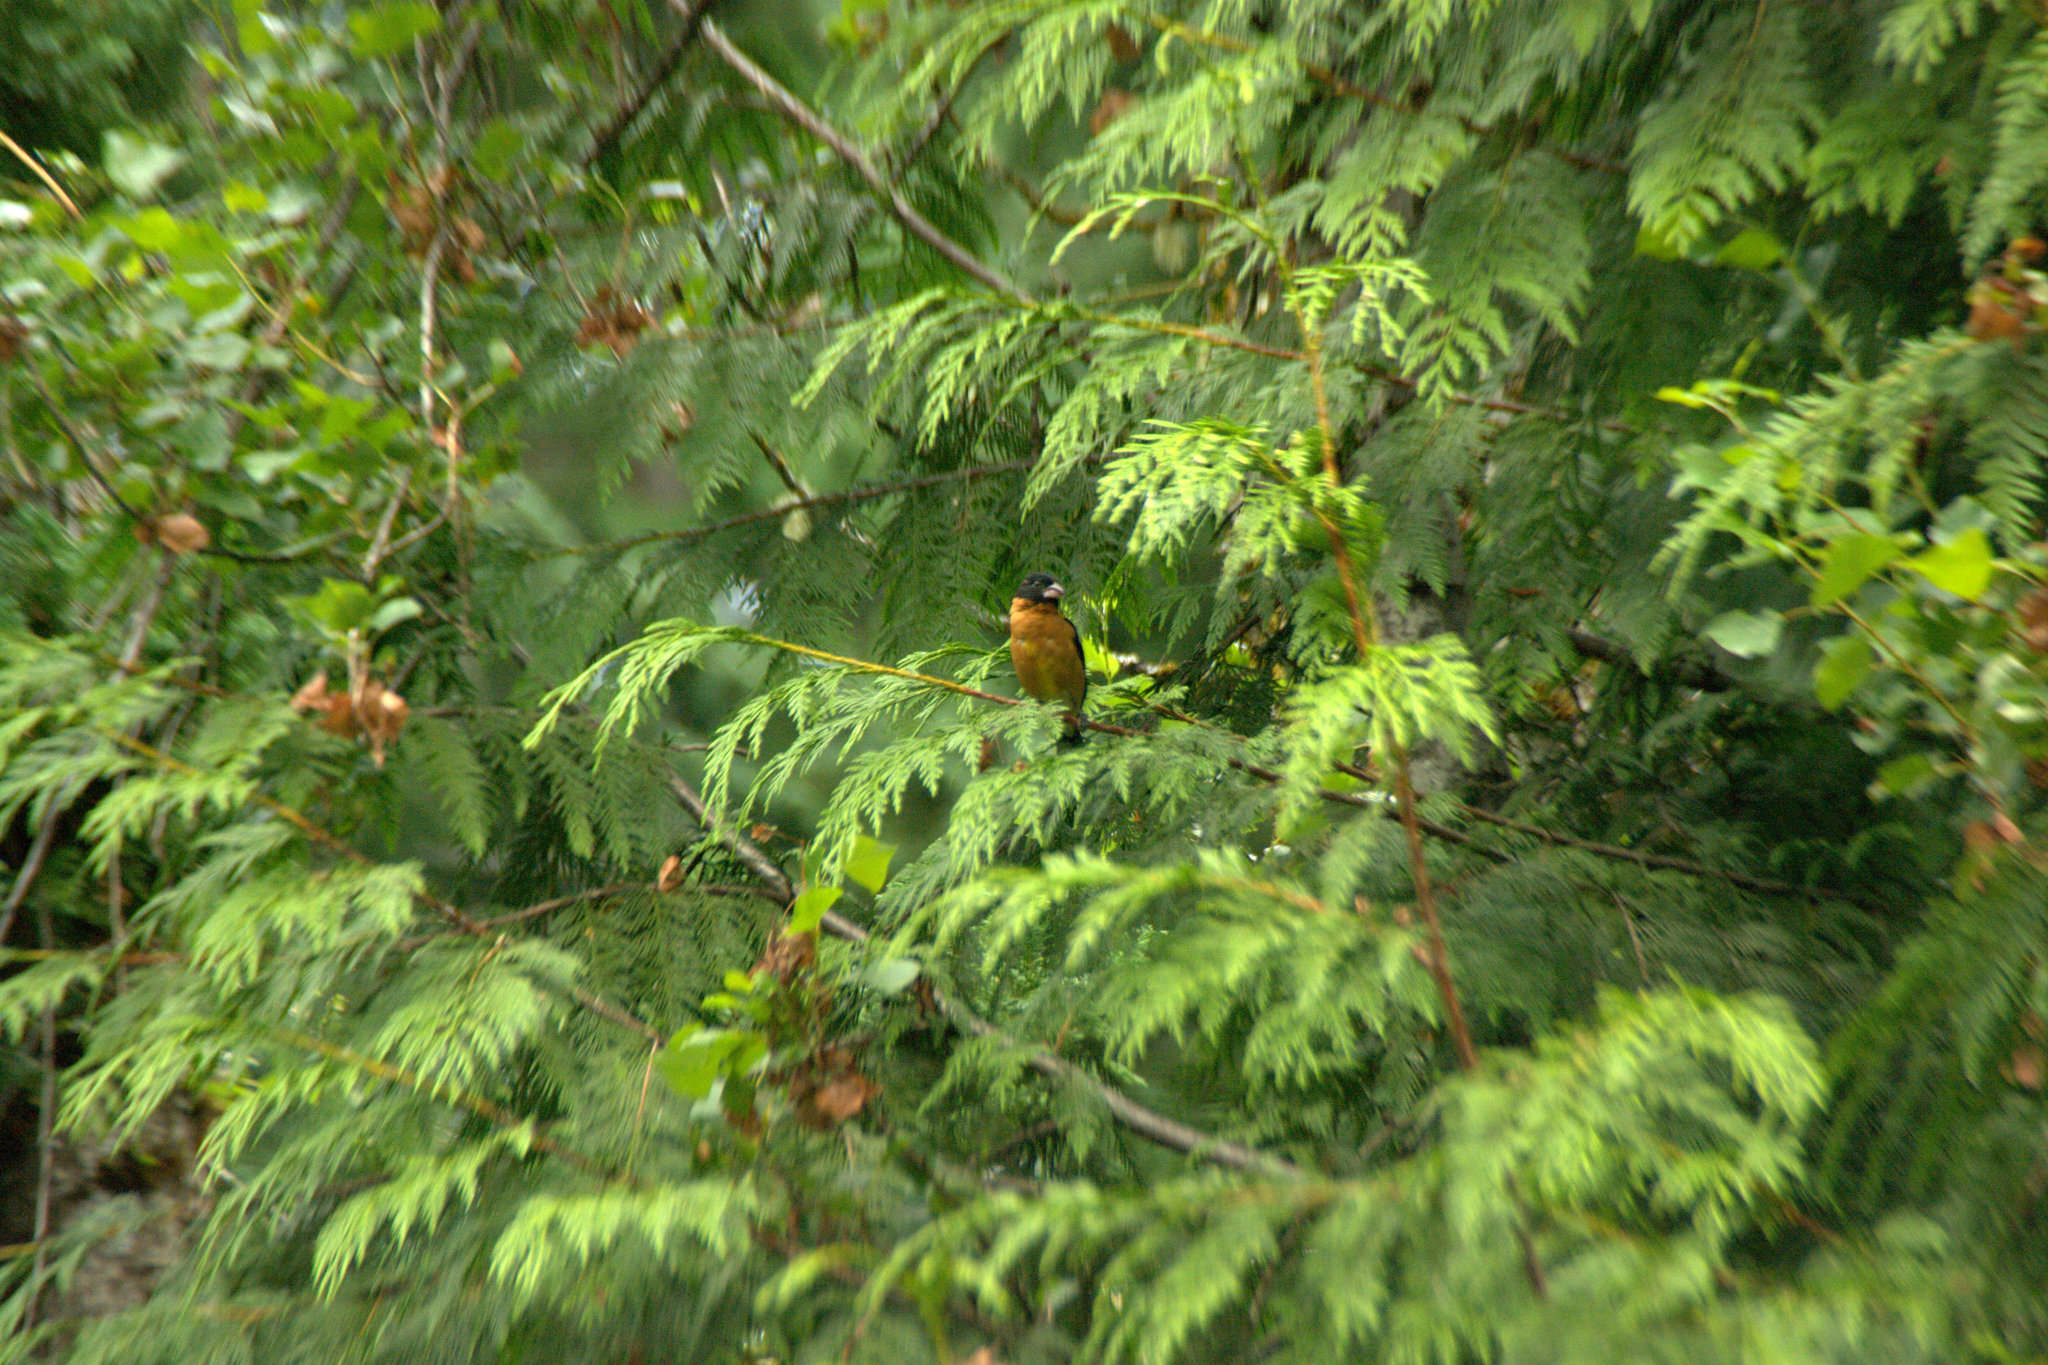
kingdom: Animalia
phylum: Chordata
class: Aves
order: Passeriformes
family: Cardinalidae
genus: Pheucticus
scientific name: Pheucticus melanocephalus
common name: Black-headed grosbeak
